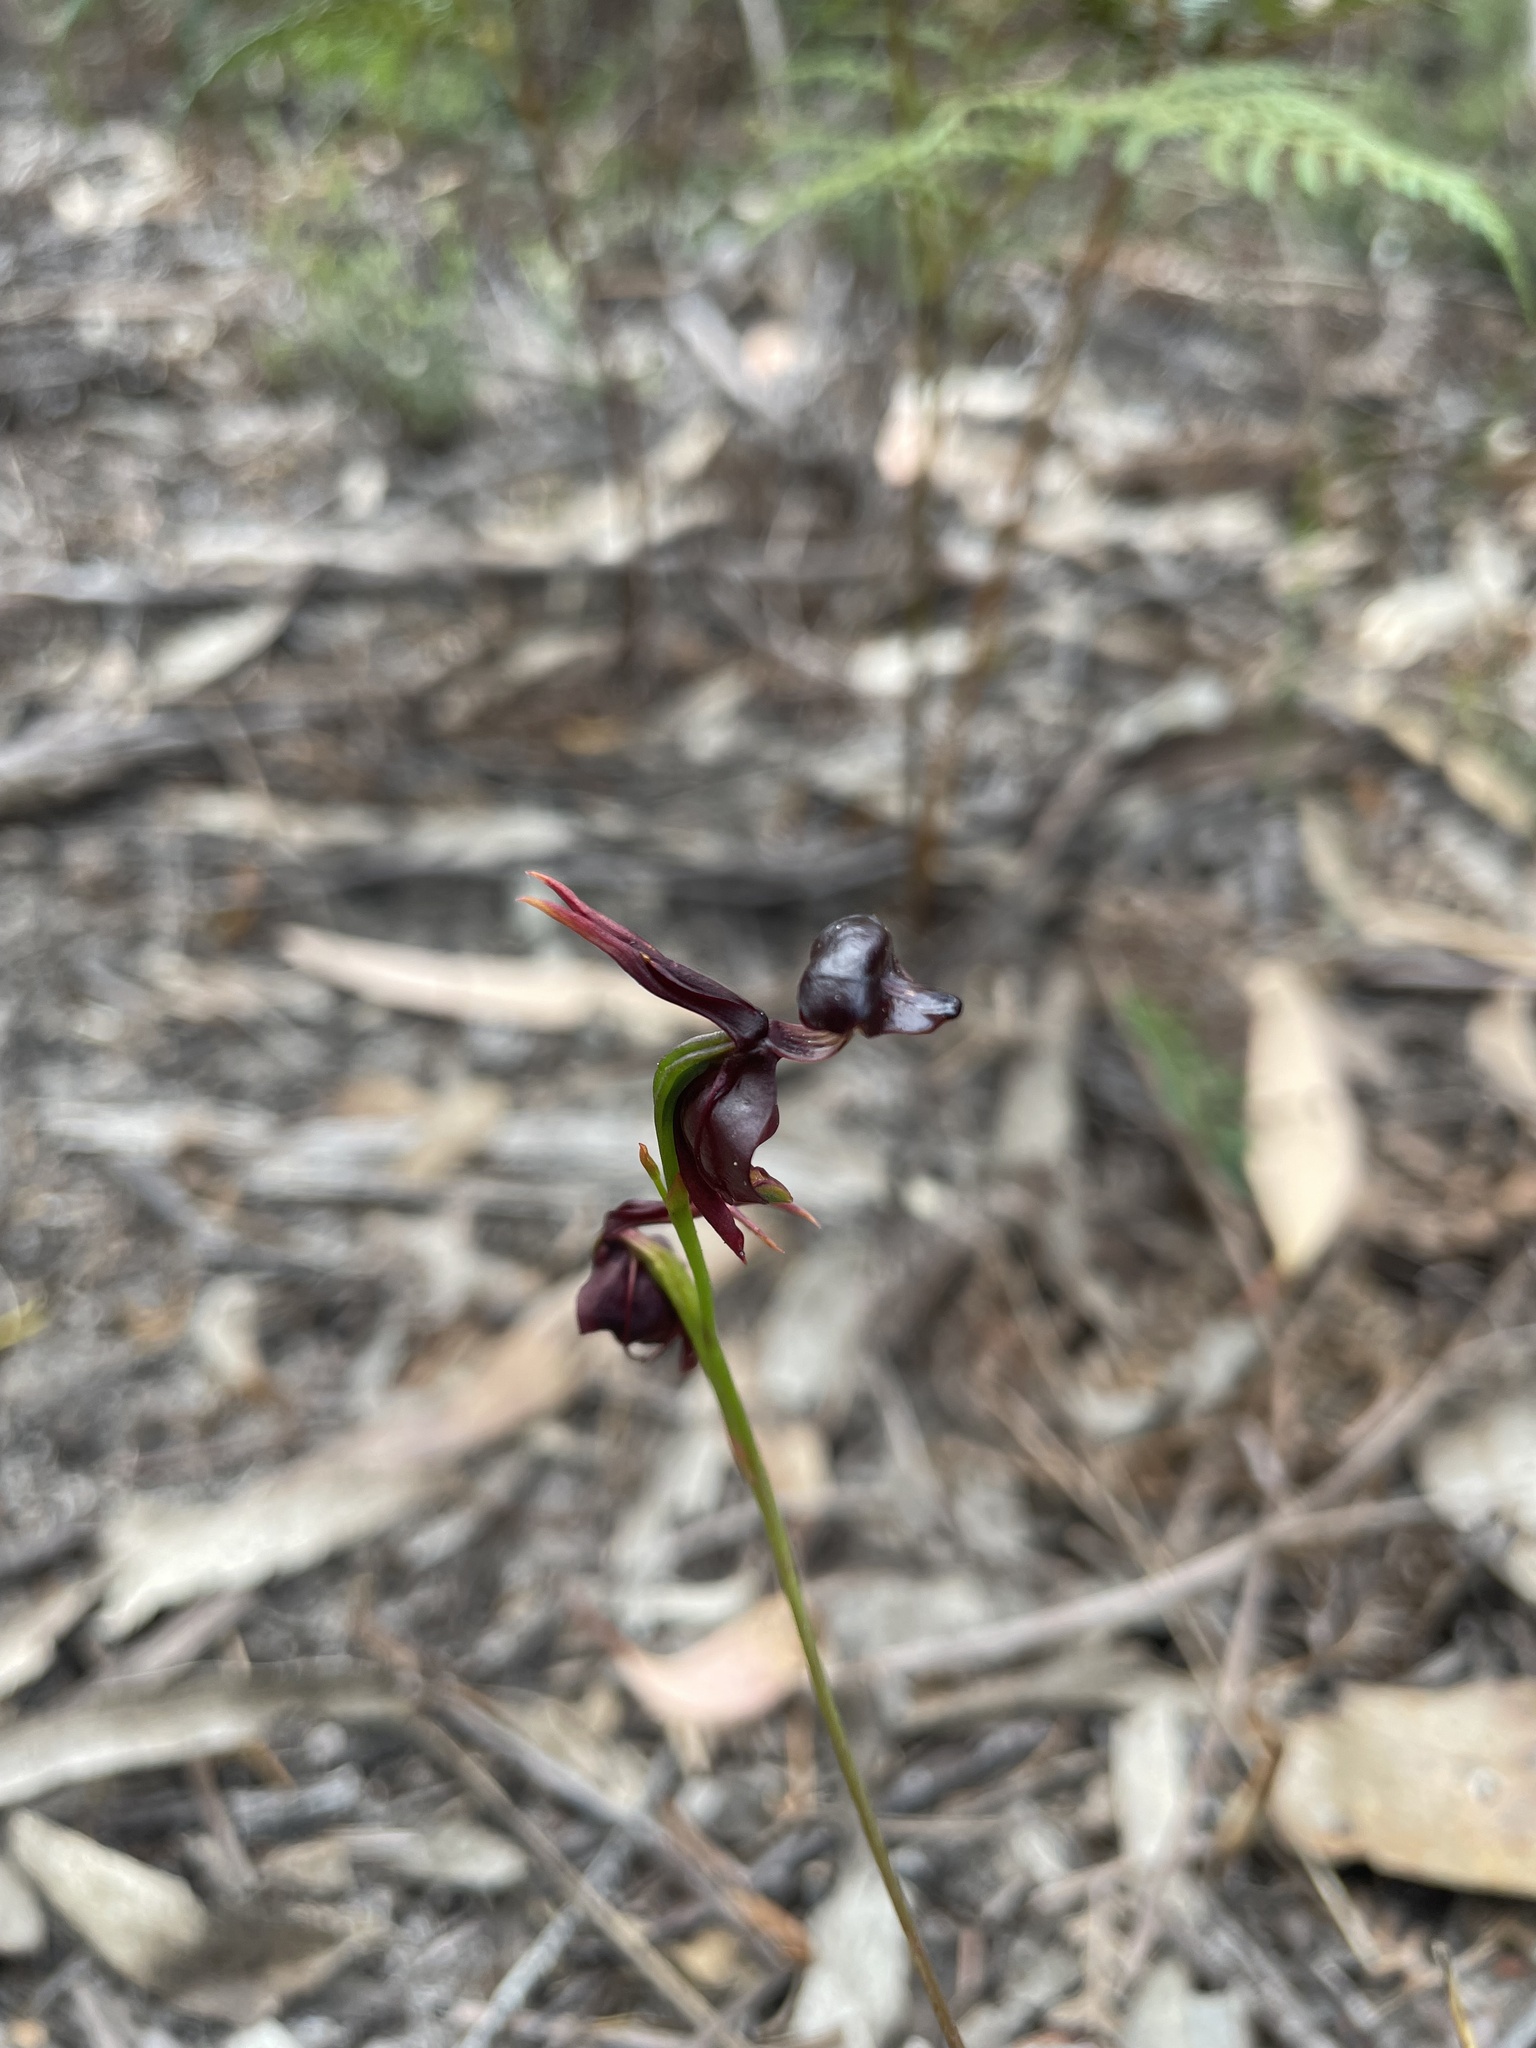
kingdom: Plantae
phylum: Tracheophyta
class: Liliopsida
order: Asparagales
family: Orchidaceae
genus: Caleana
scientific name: Caleana major
